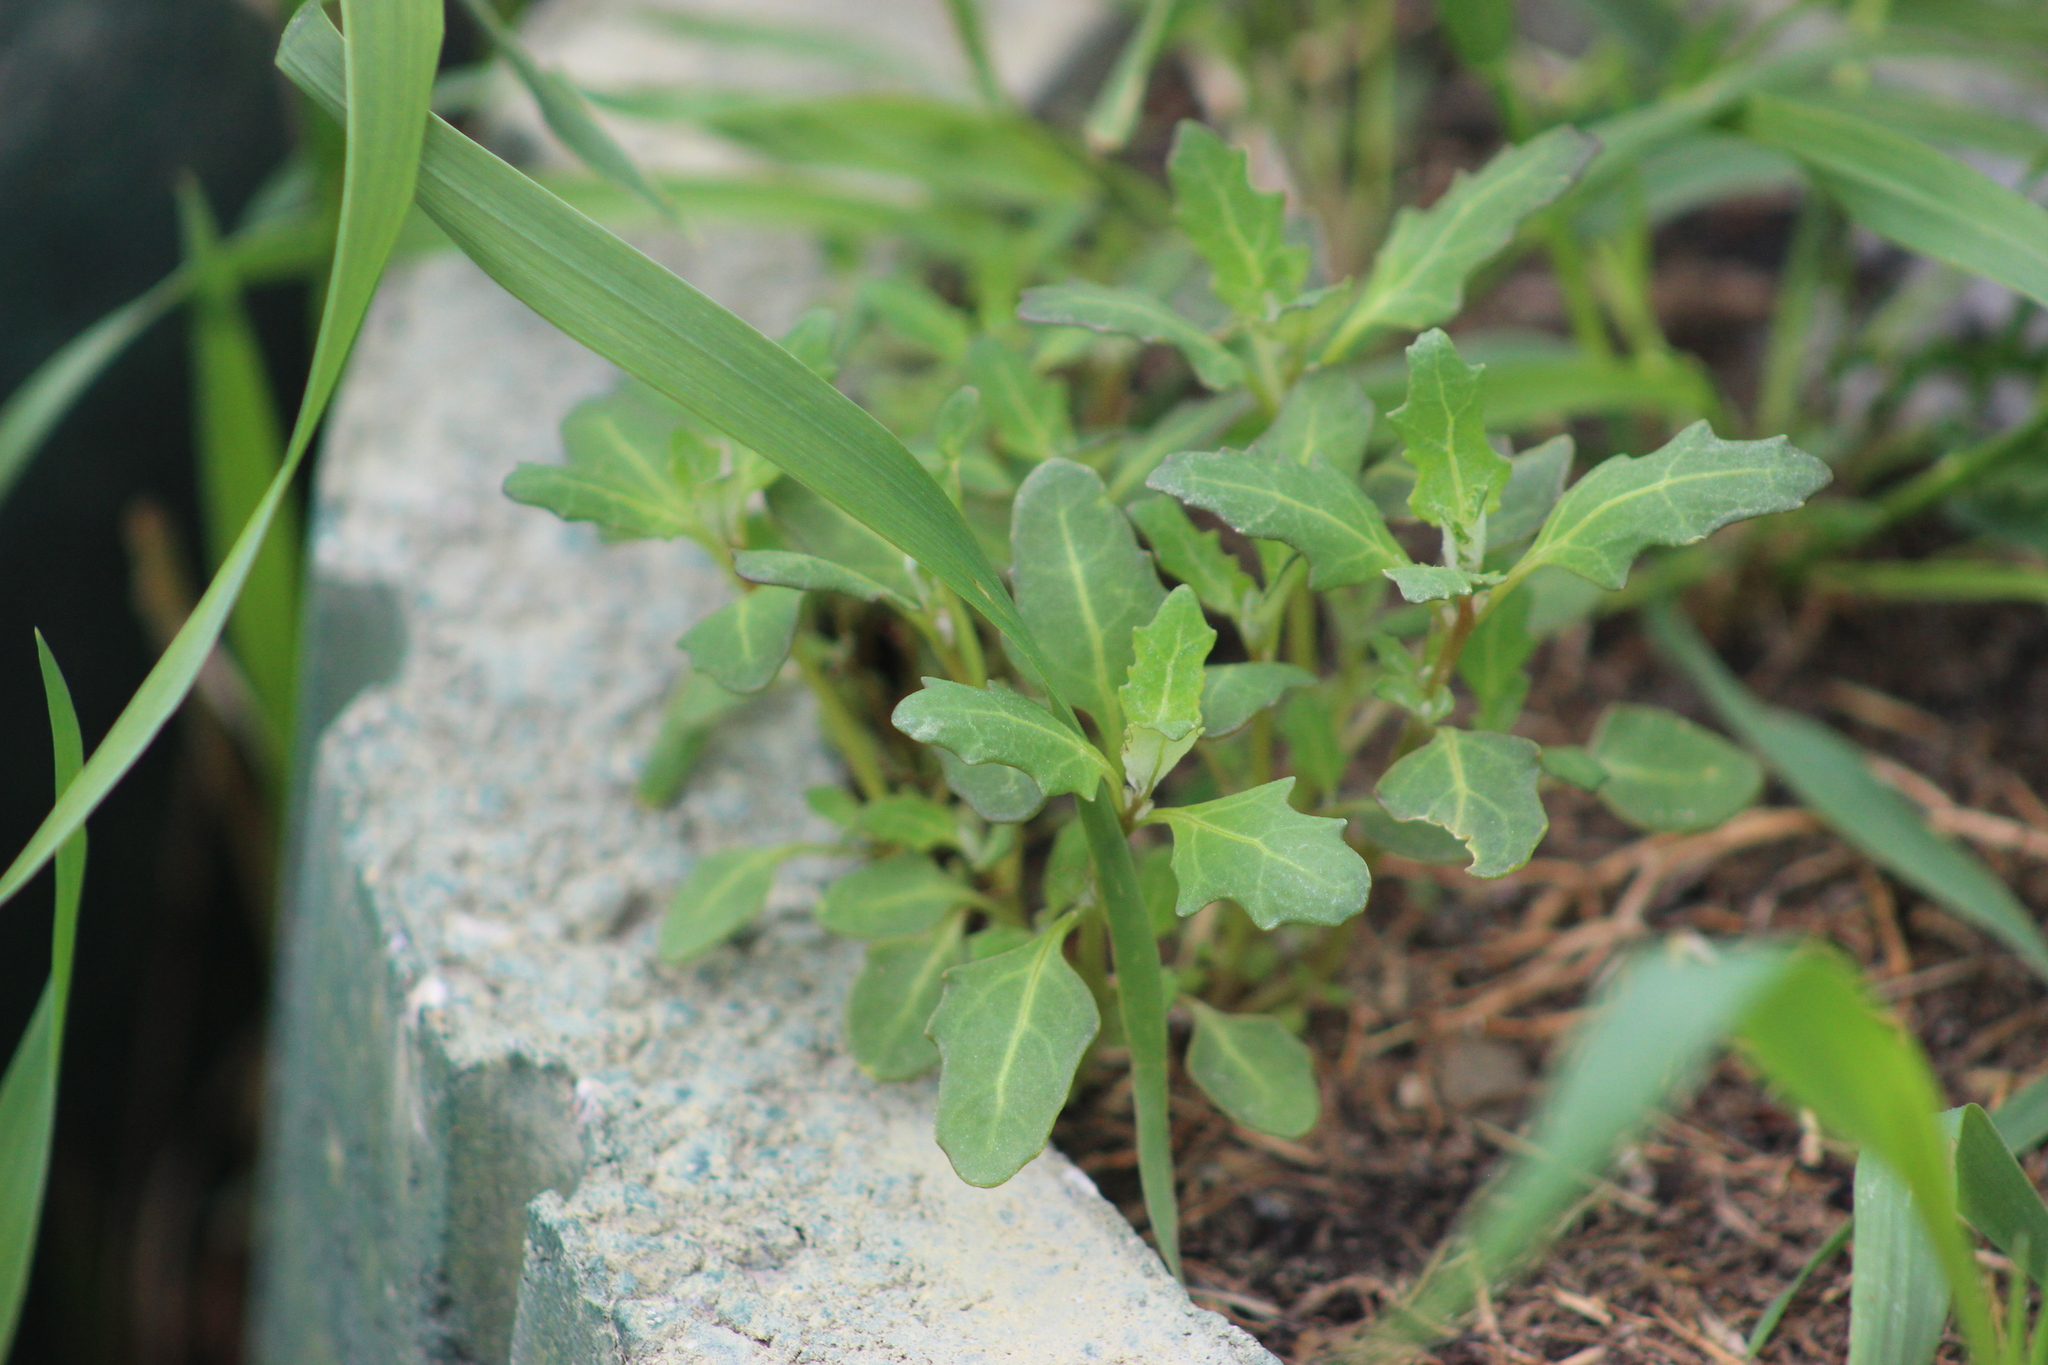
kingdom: Plantae
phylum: Tracheophyta
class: Magnoliopsida
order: Caryophyllales
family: Amaranthaceae
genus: Oxybasis
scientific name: Oxybasis glauca
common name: Glaucous goosefoot
